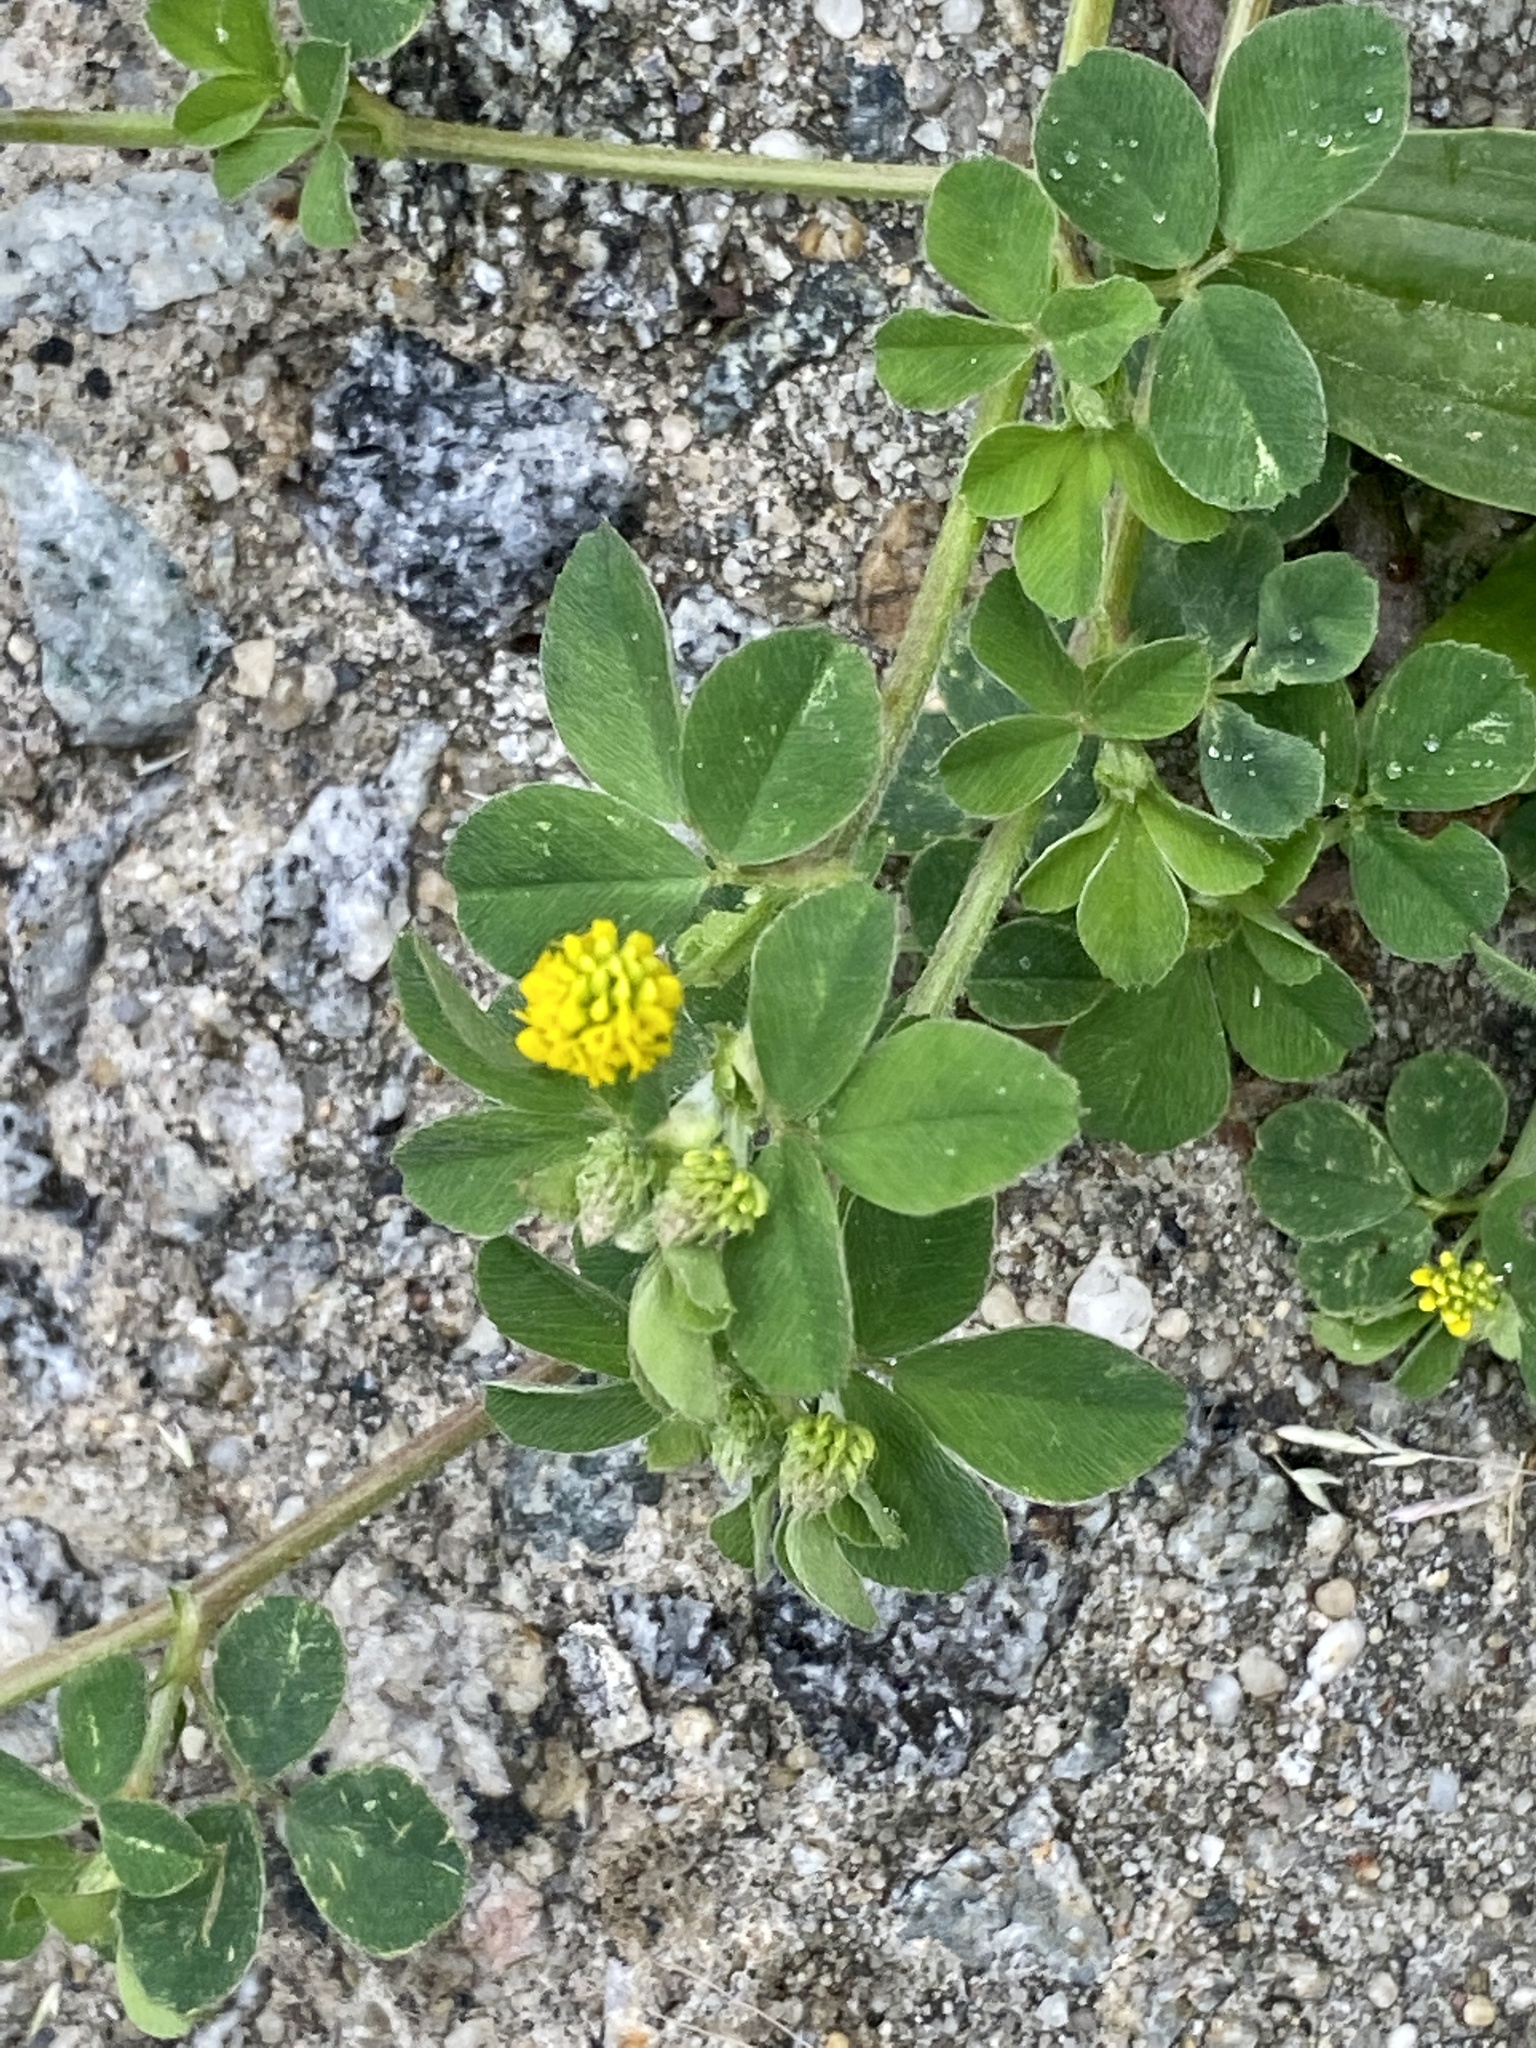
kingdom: Plantae
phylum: Tracheophyta
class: Magnoliopsida
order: Fabales
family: Fabaceae
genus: Medicago
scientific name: Medicago lupulina
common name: Black medick
